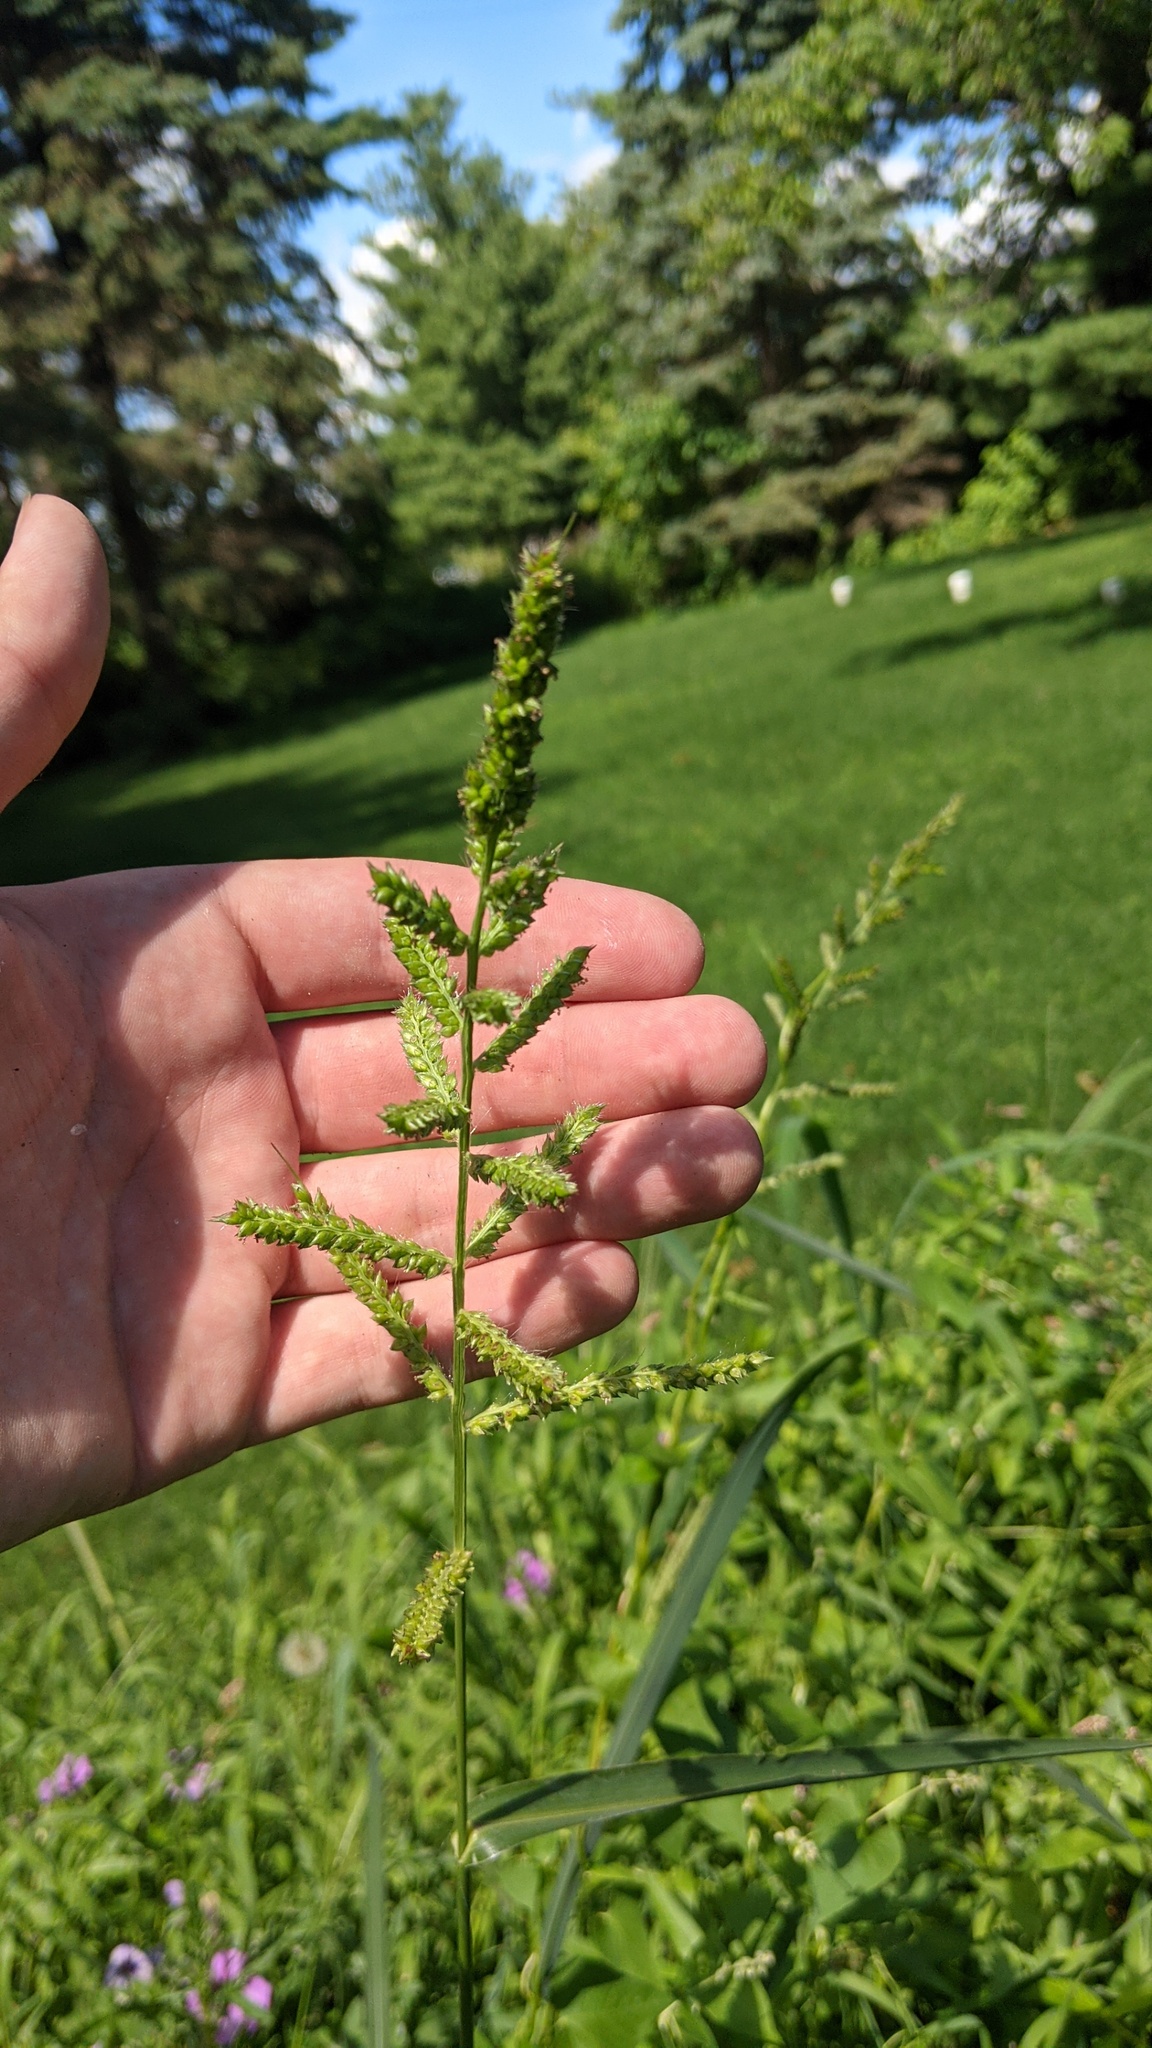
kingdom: Plantae
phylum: Tracheophyta
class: Liliopsida
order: Poales
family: Poaceae
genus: Echinochloa
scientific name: Echinochloa crus-galli
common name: Cockspur
